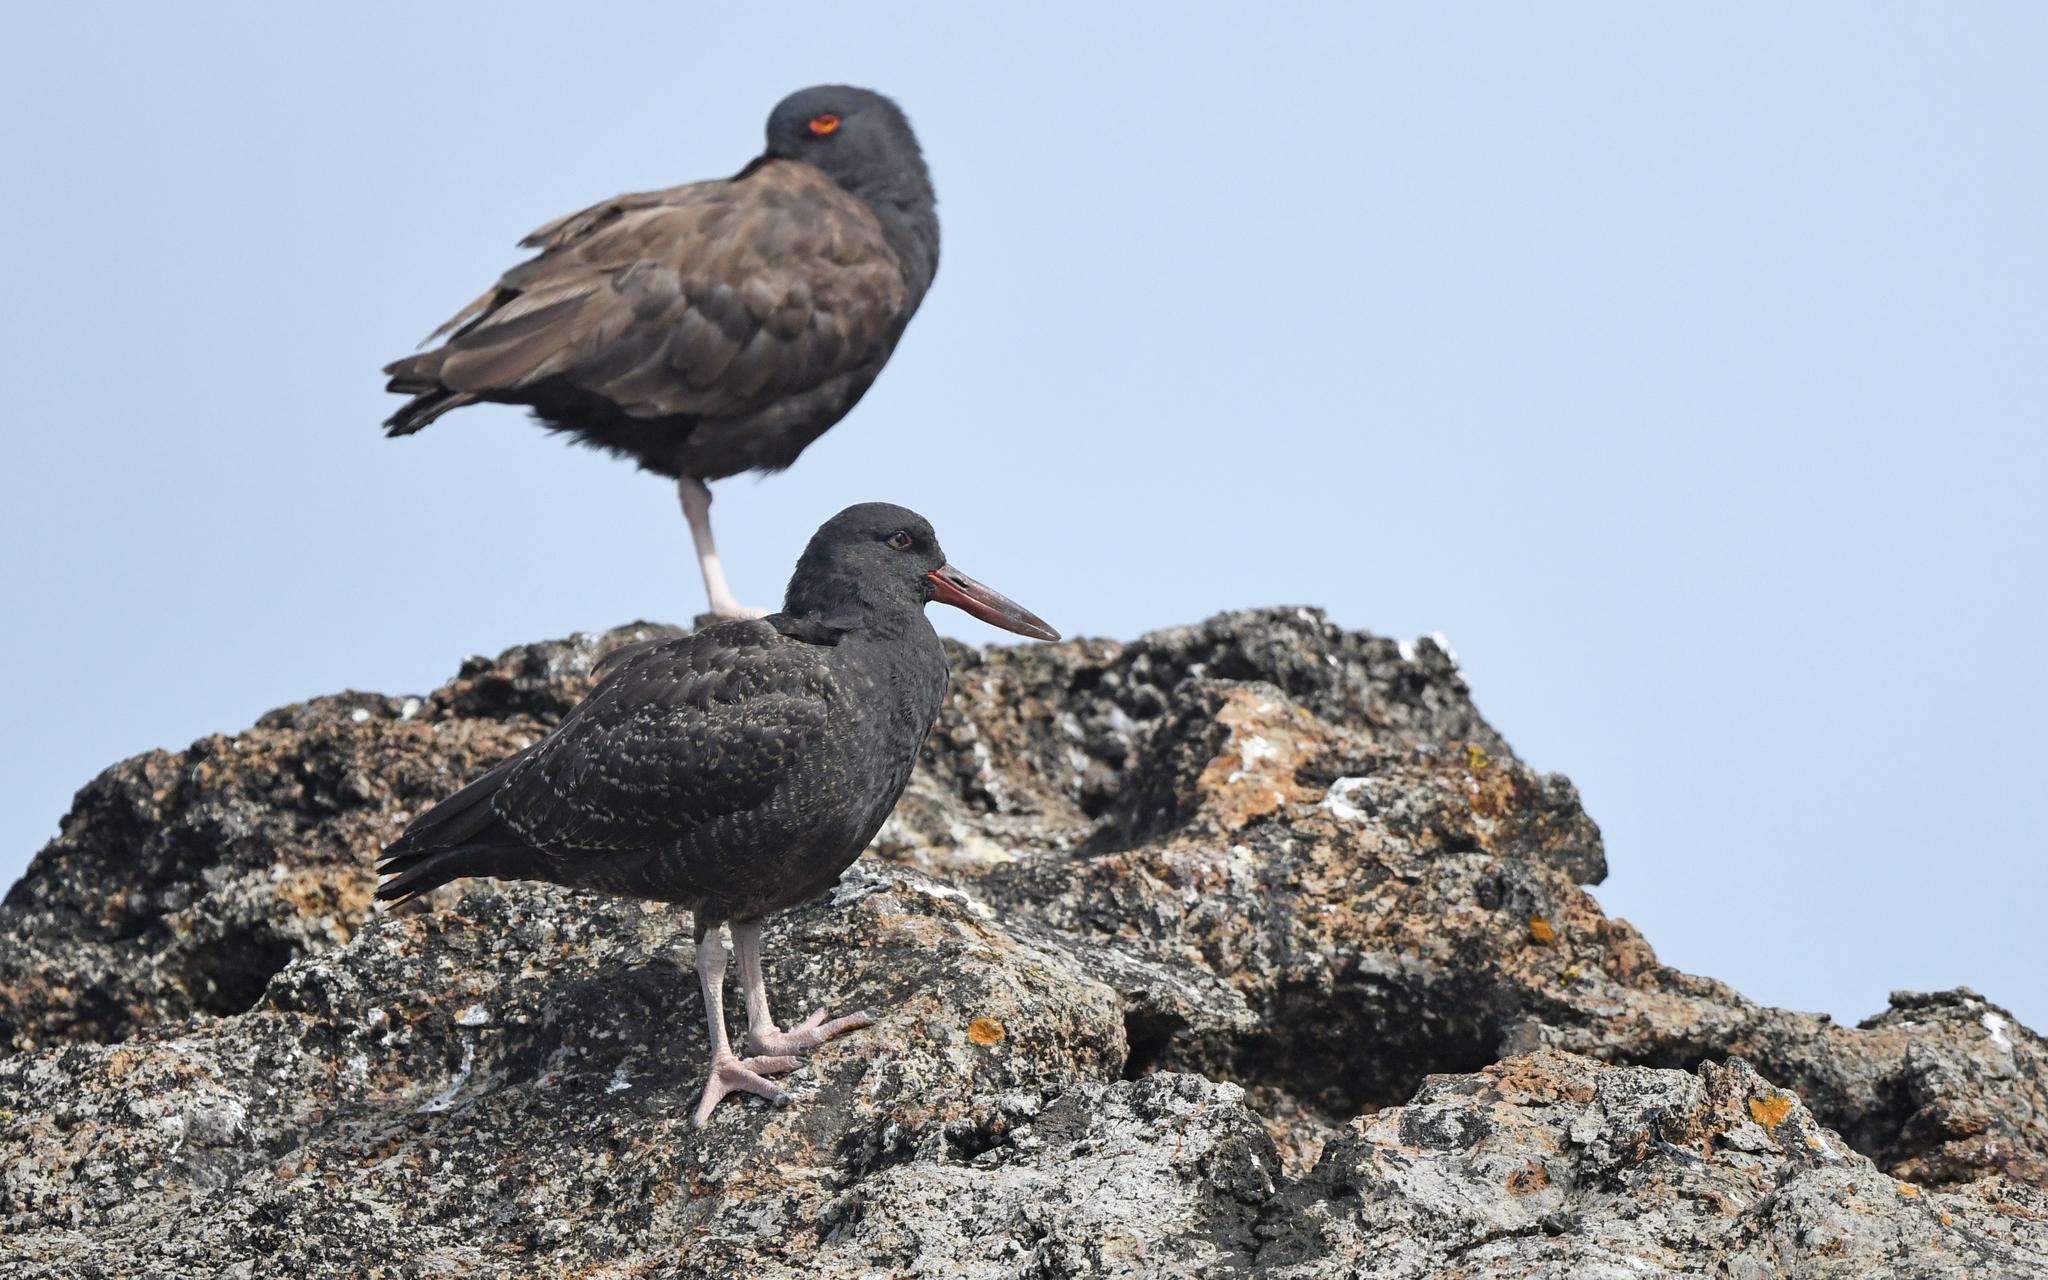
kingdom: Animalia
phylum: Chordata
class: Aves
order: Charadriiformes
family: Haematopodidae
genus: Haematopus
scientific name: Haematopus ater
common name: Blackish oystercatcher
